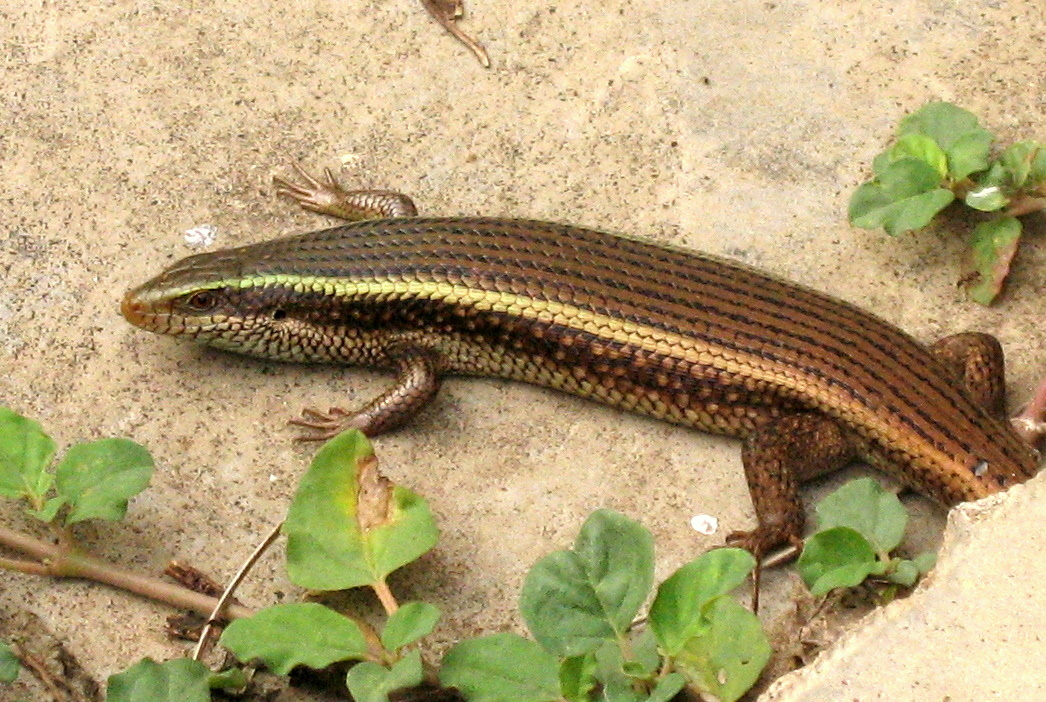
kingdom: Animalia
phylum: Chordata
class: Squamata
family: Scincidae
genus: Eutropis
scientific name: Eutropis carinata
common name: Keeled indian mabuya
